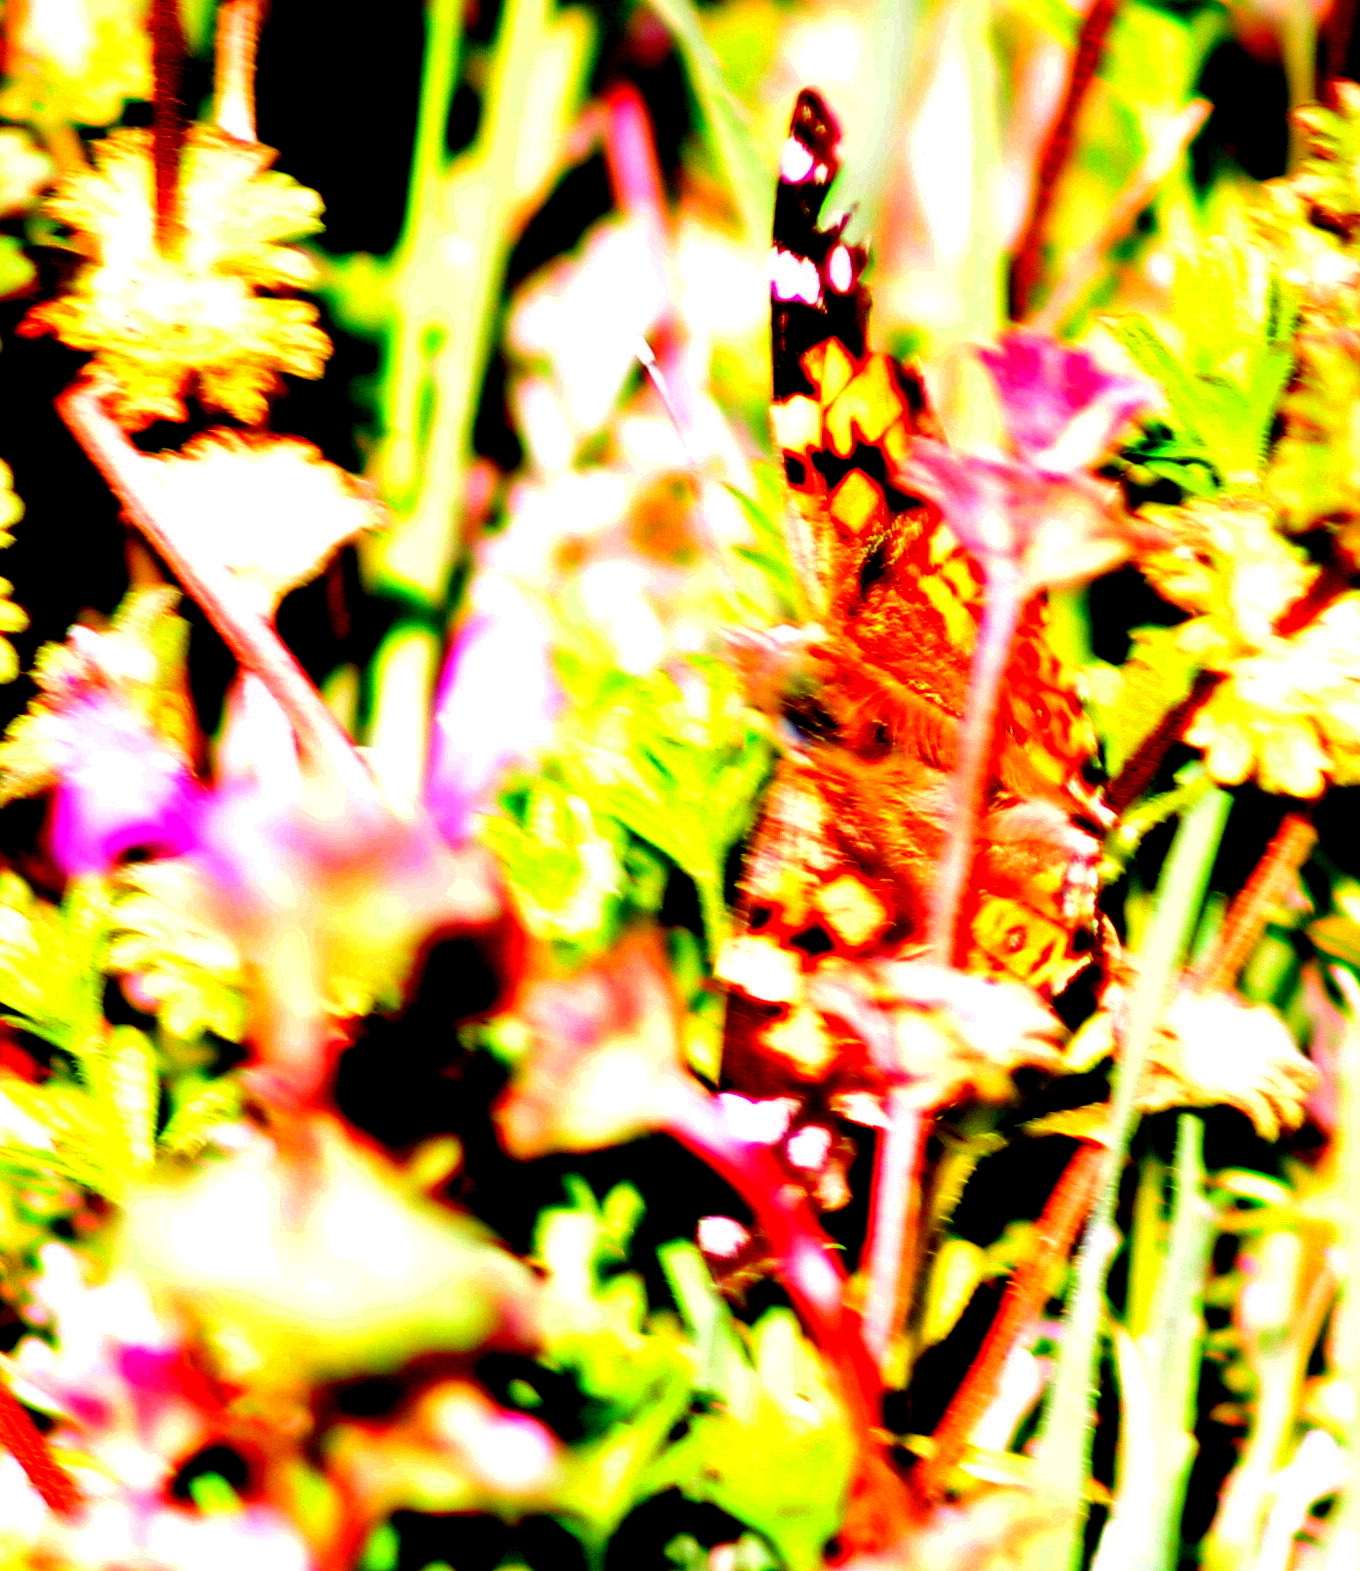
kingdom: Animalia
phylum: Arthropoda
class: Insecta
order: Lepidoptera
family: Nymphalidae
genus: Vanessa
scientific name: Vanessa cardui
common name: Painted lady
